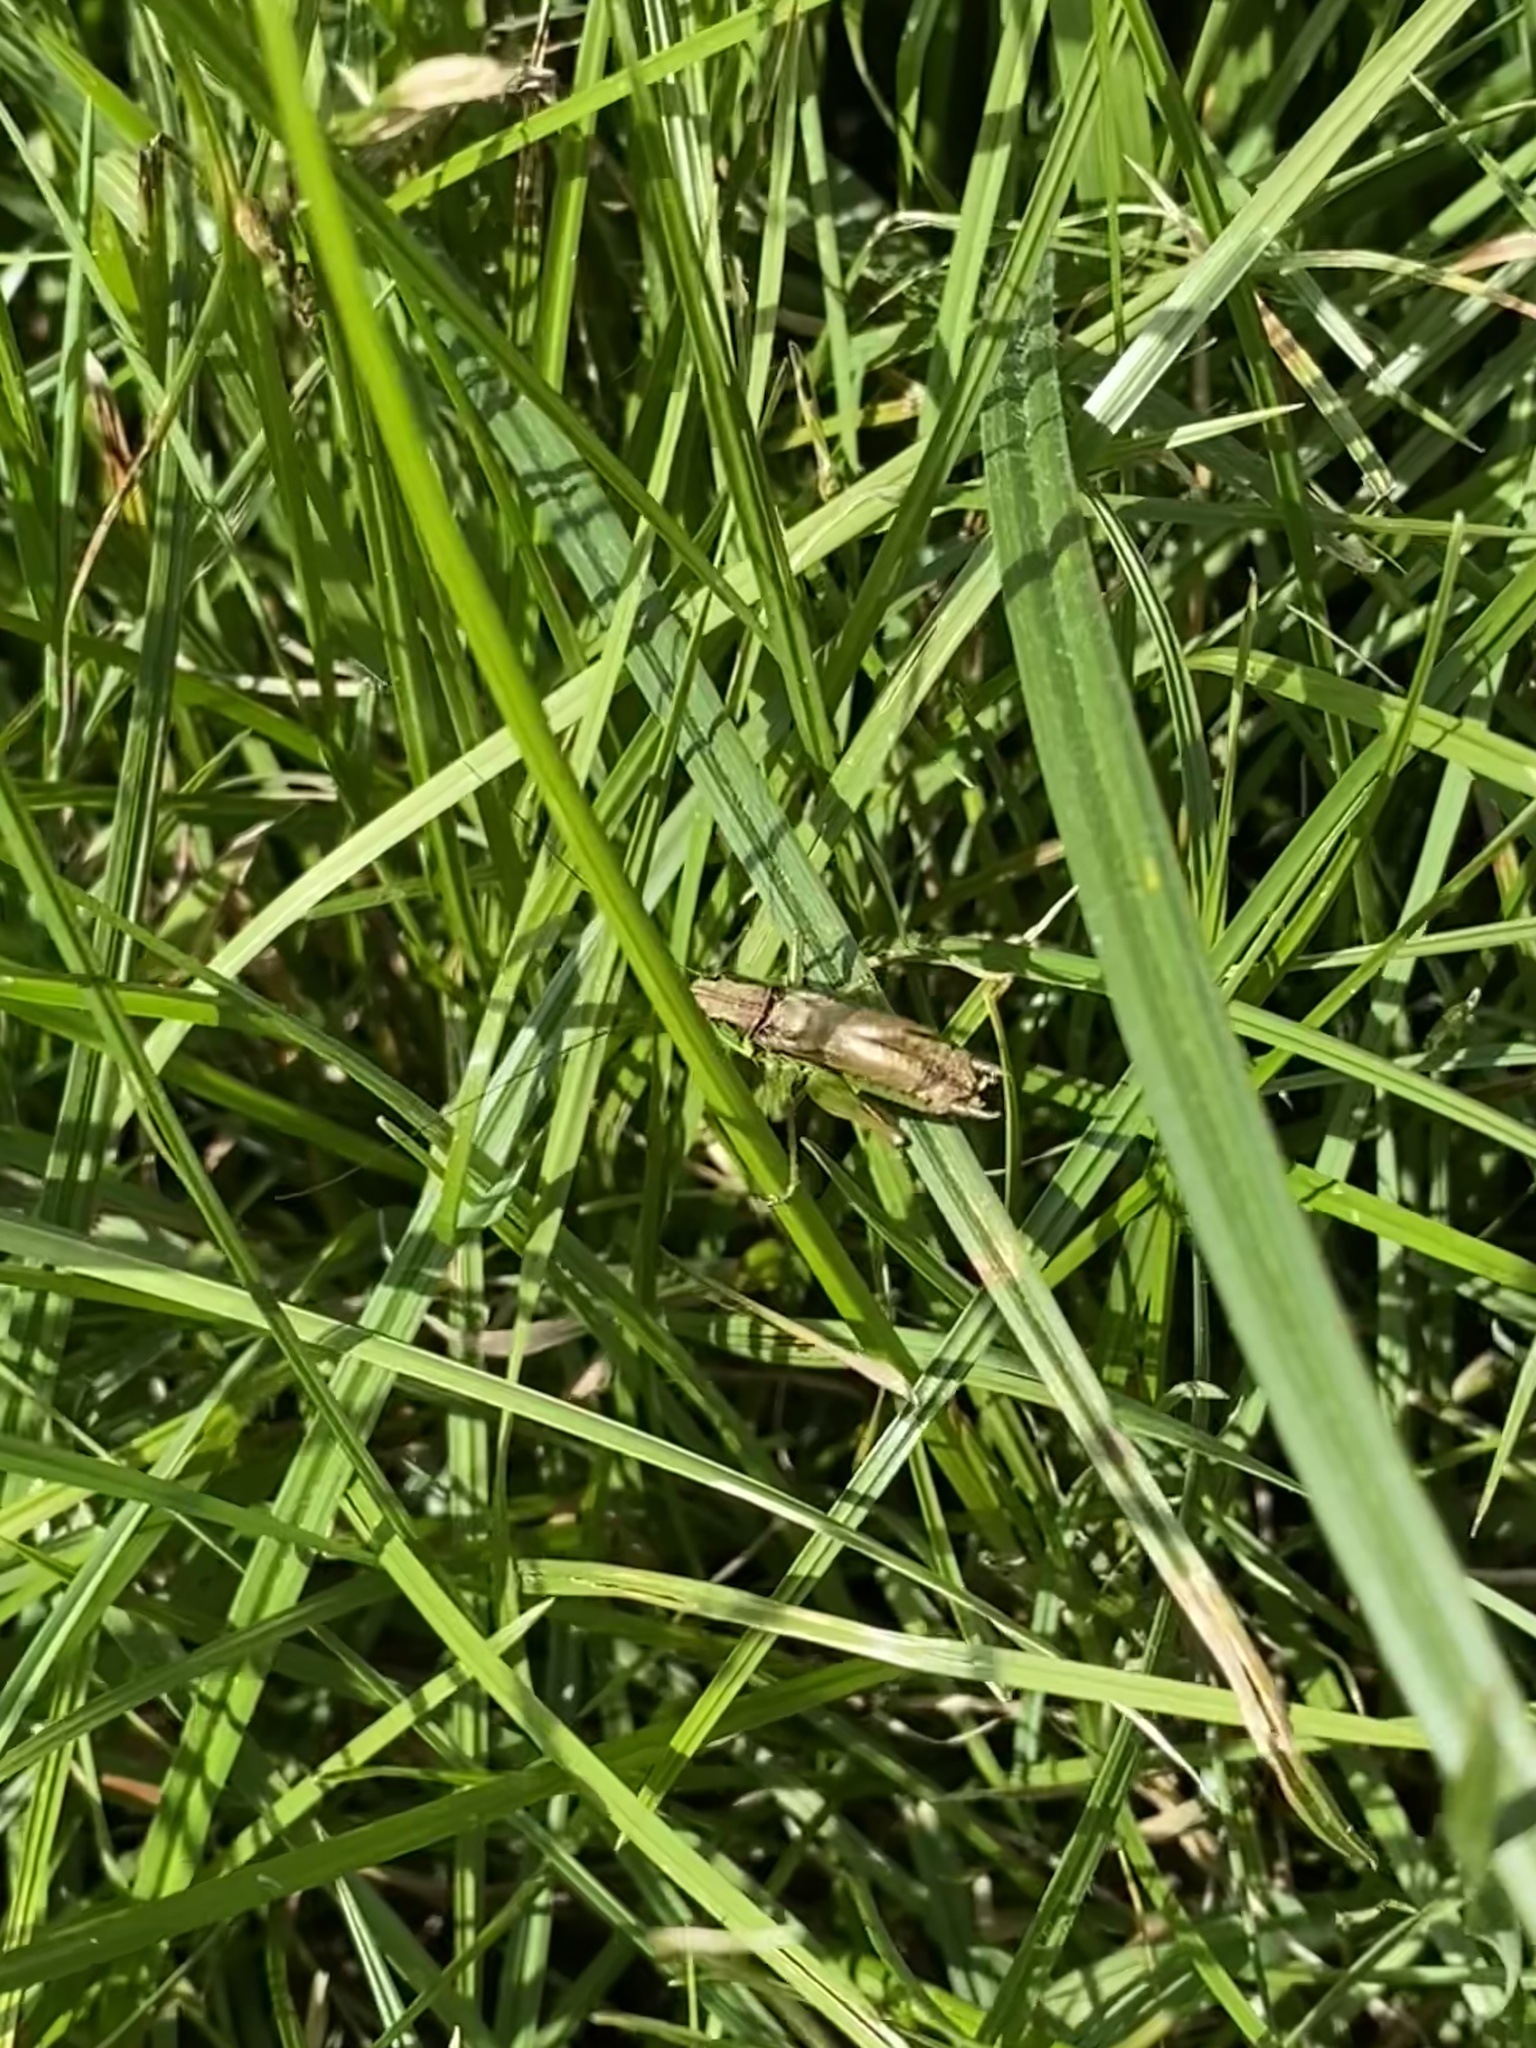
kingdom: Animalia
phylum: Arthropoda
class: Insecta
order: Orthoptera
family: Tettigoniidae
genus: Roeseliana
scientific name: Roeseliana roeselii
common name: Roesel's bush cricket
